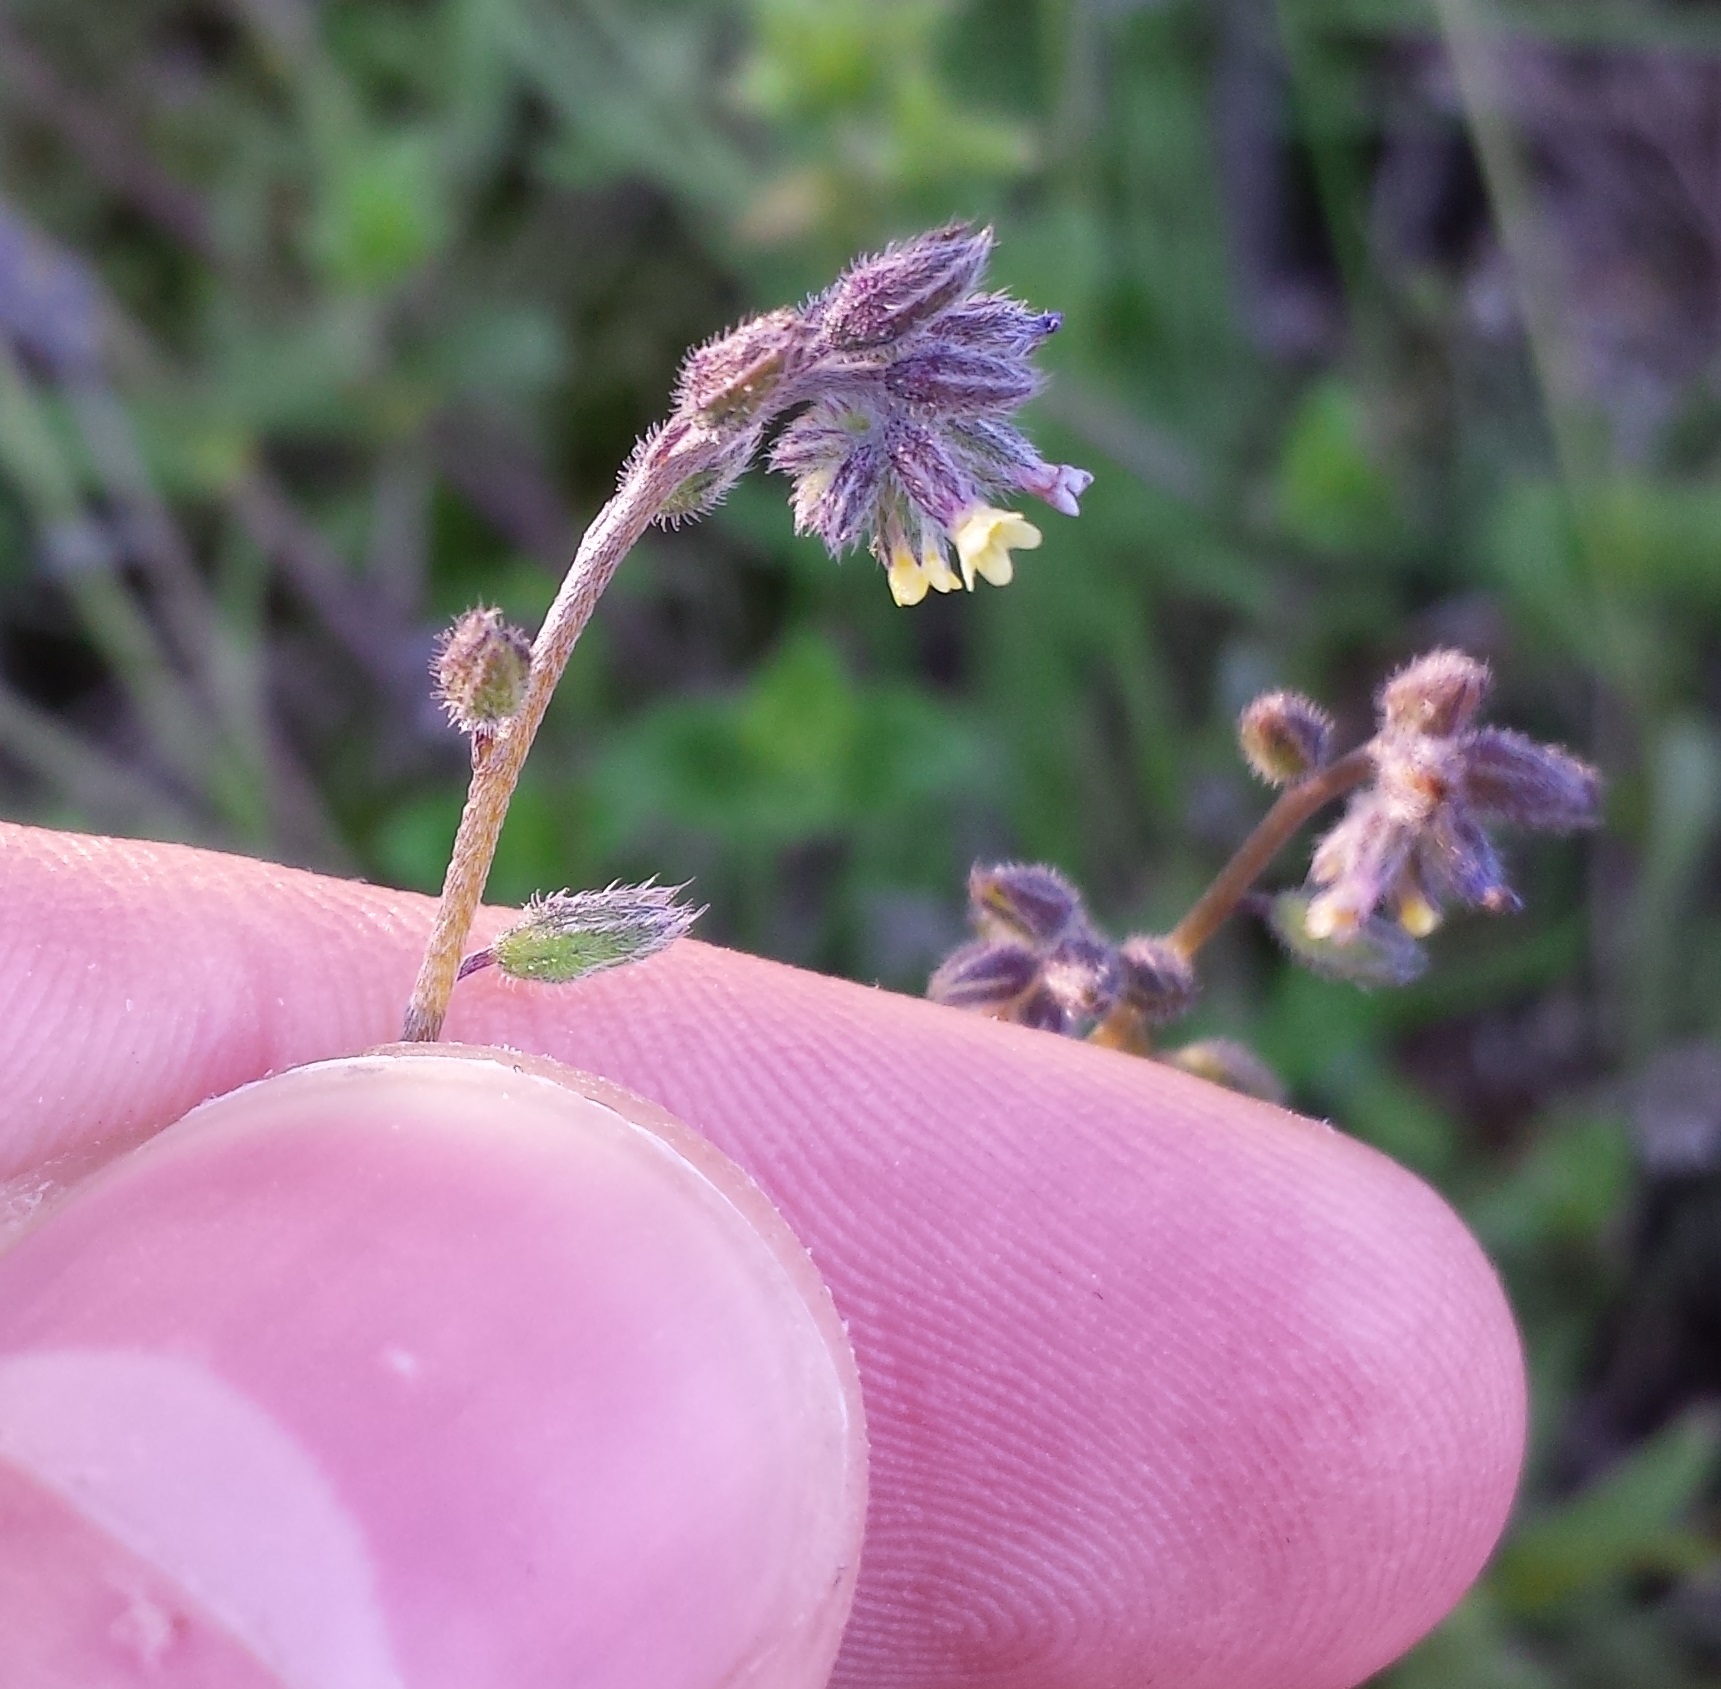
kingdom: Plantae
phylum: Tracheophyta
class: Magnoliopsida
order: Boraginales
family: Boraginaceae
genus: Myosotis
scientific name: Myosotis discolor
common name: Changing forget-me-not
